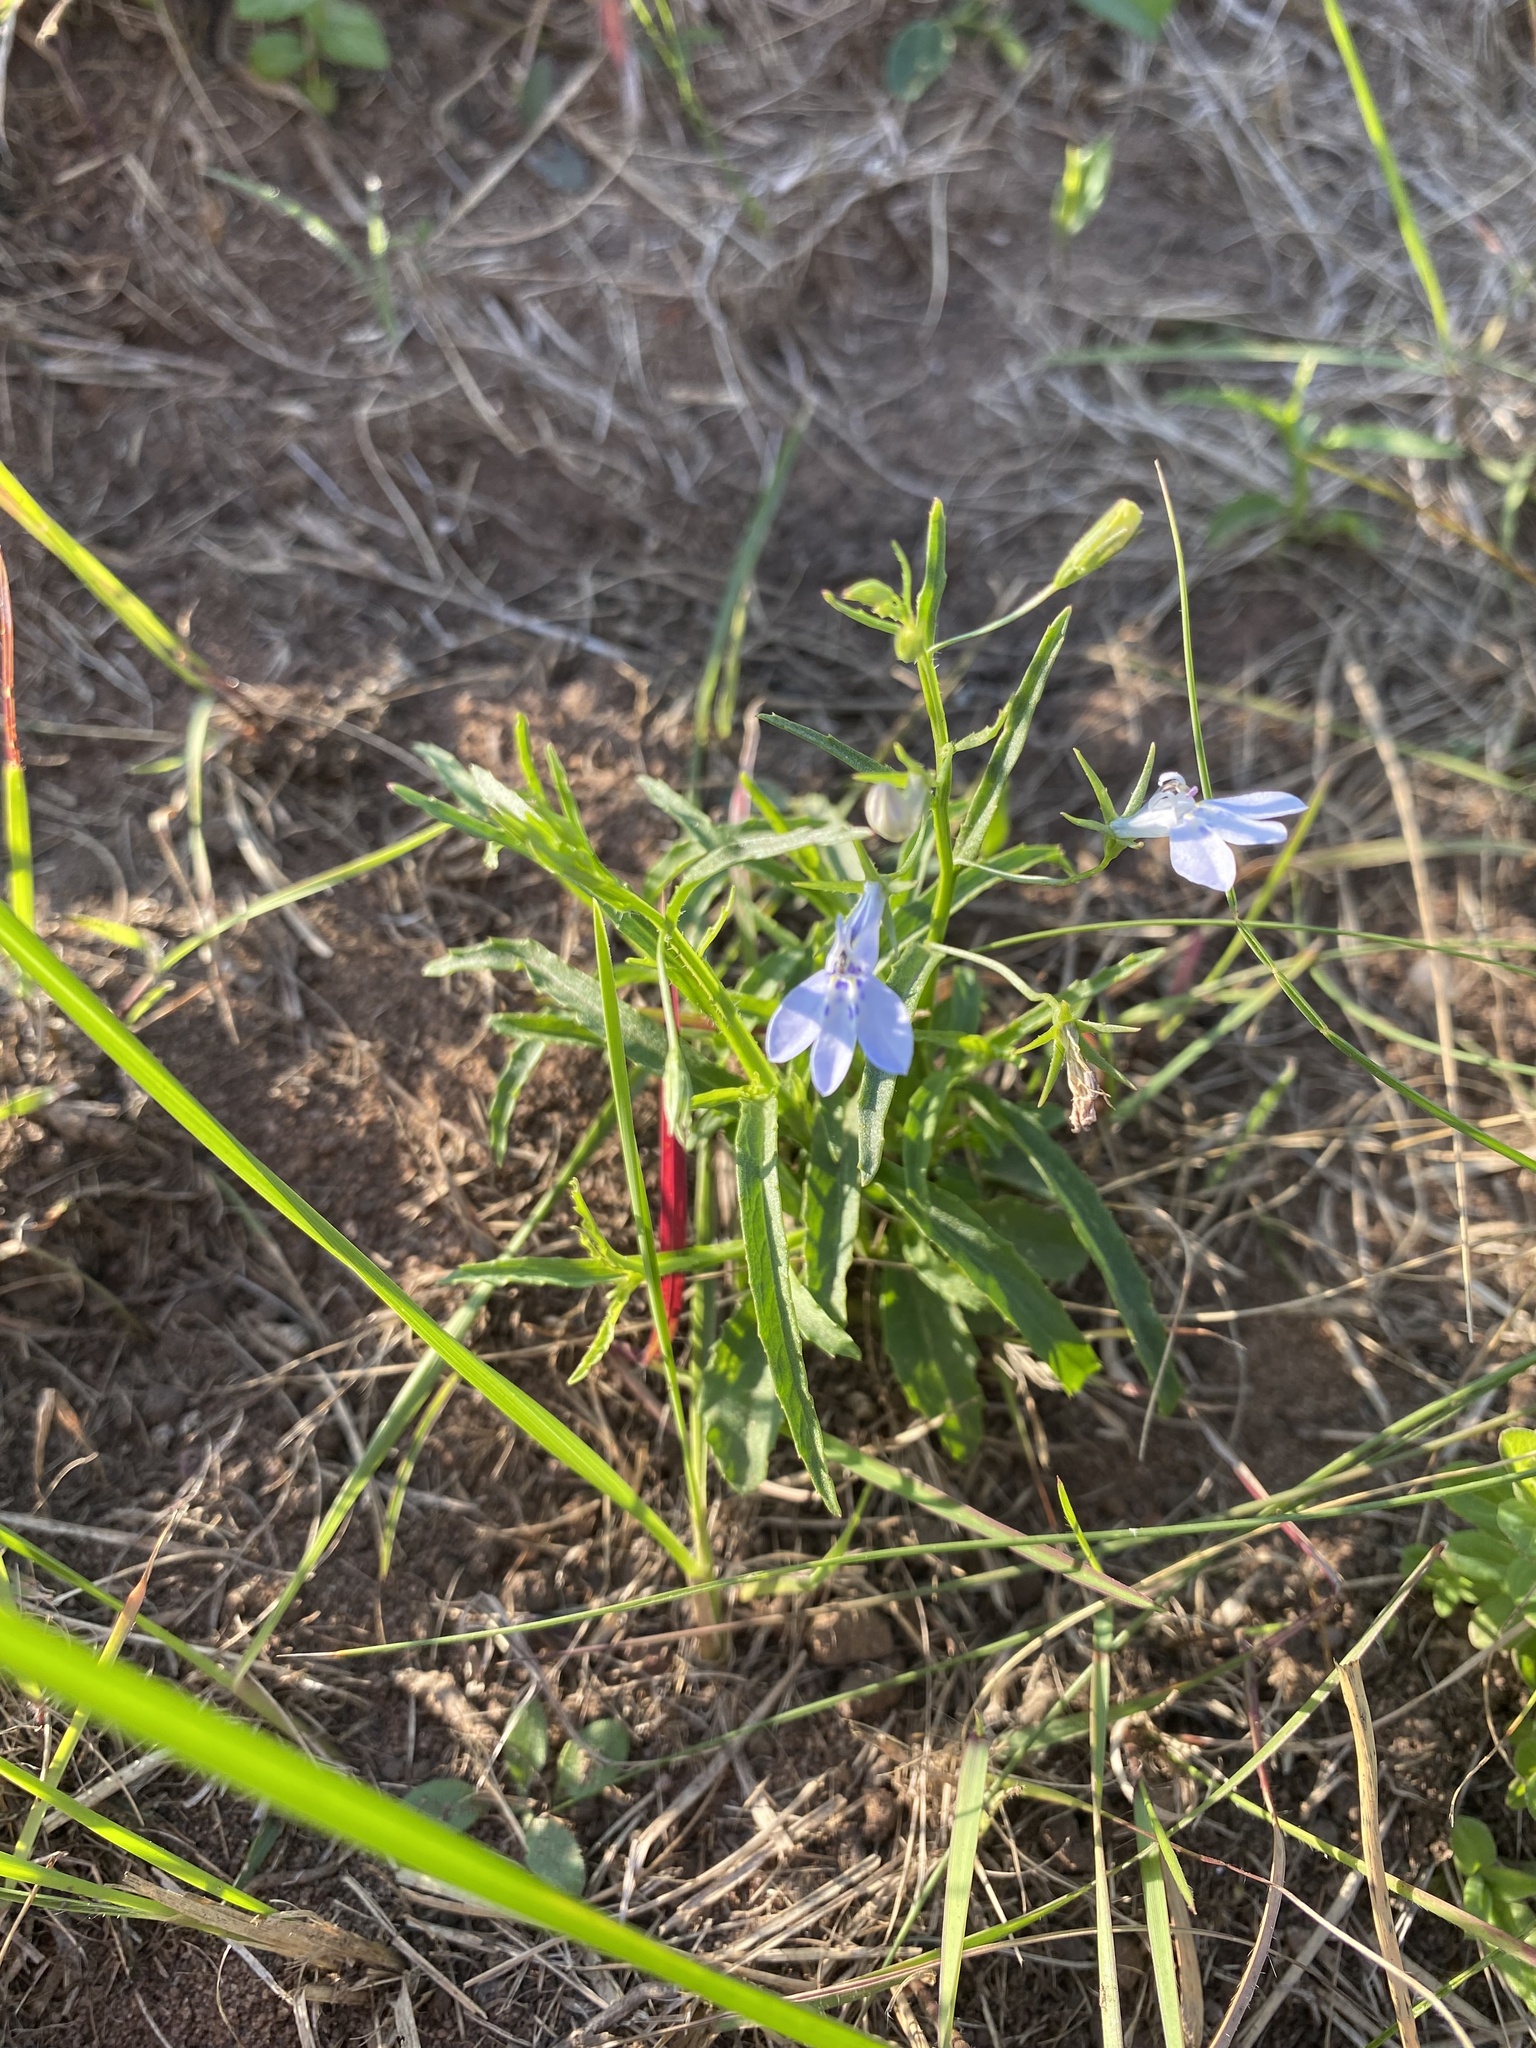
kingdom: Plantae
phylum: Tracheophyta
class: Magnoliopsida
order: Asterales
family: Campanulaceae
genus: Lobelia
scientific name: Lobelia flaccida
